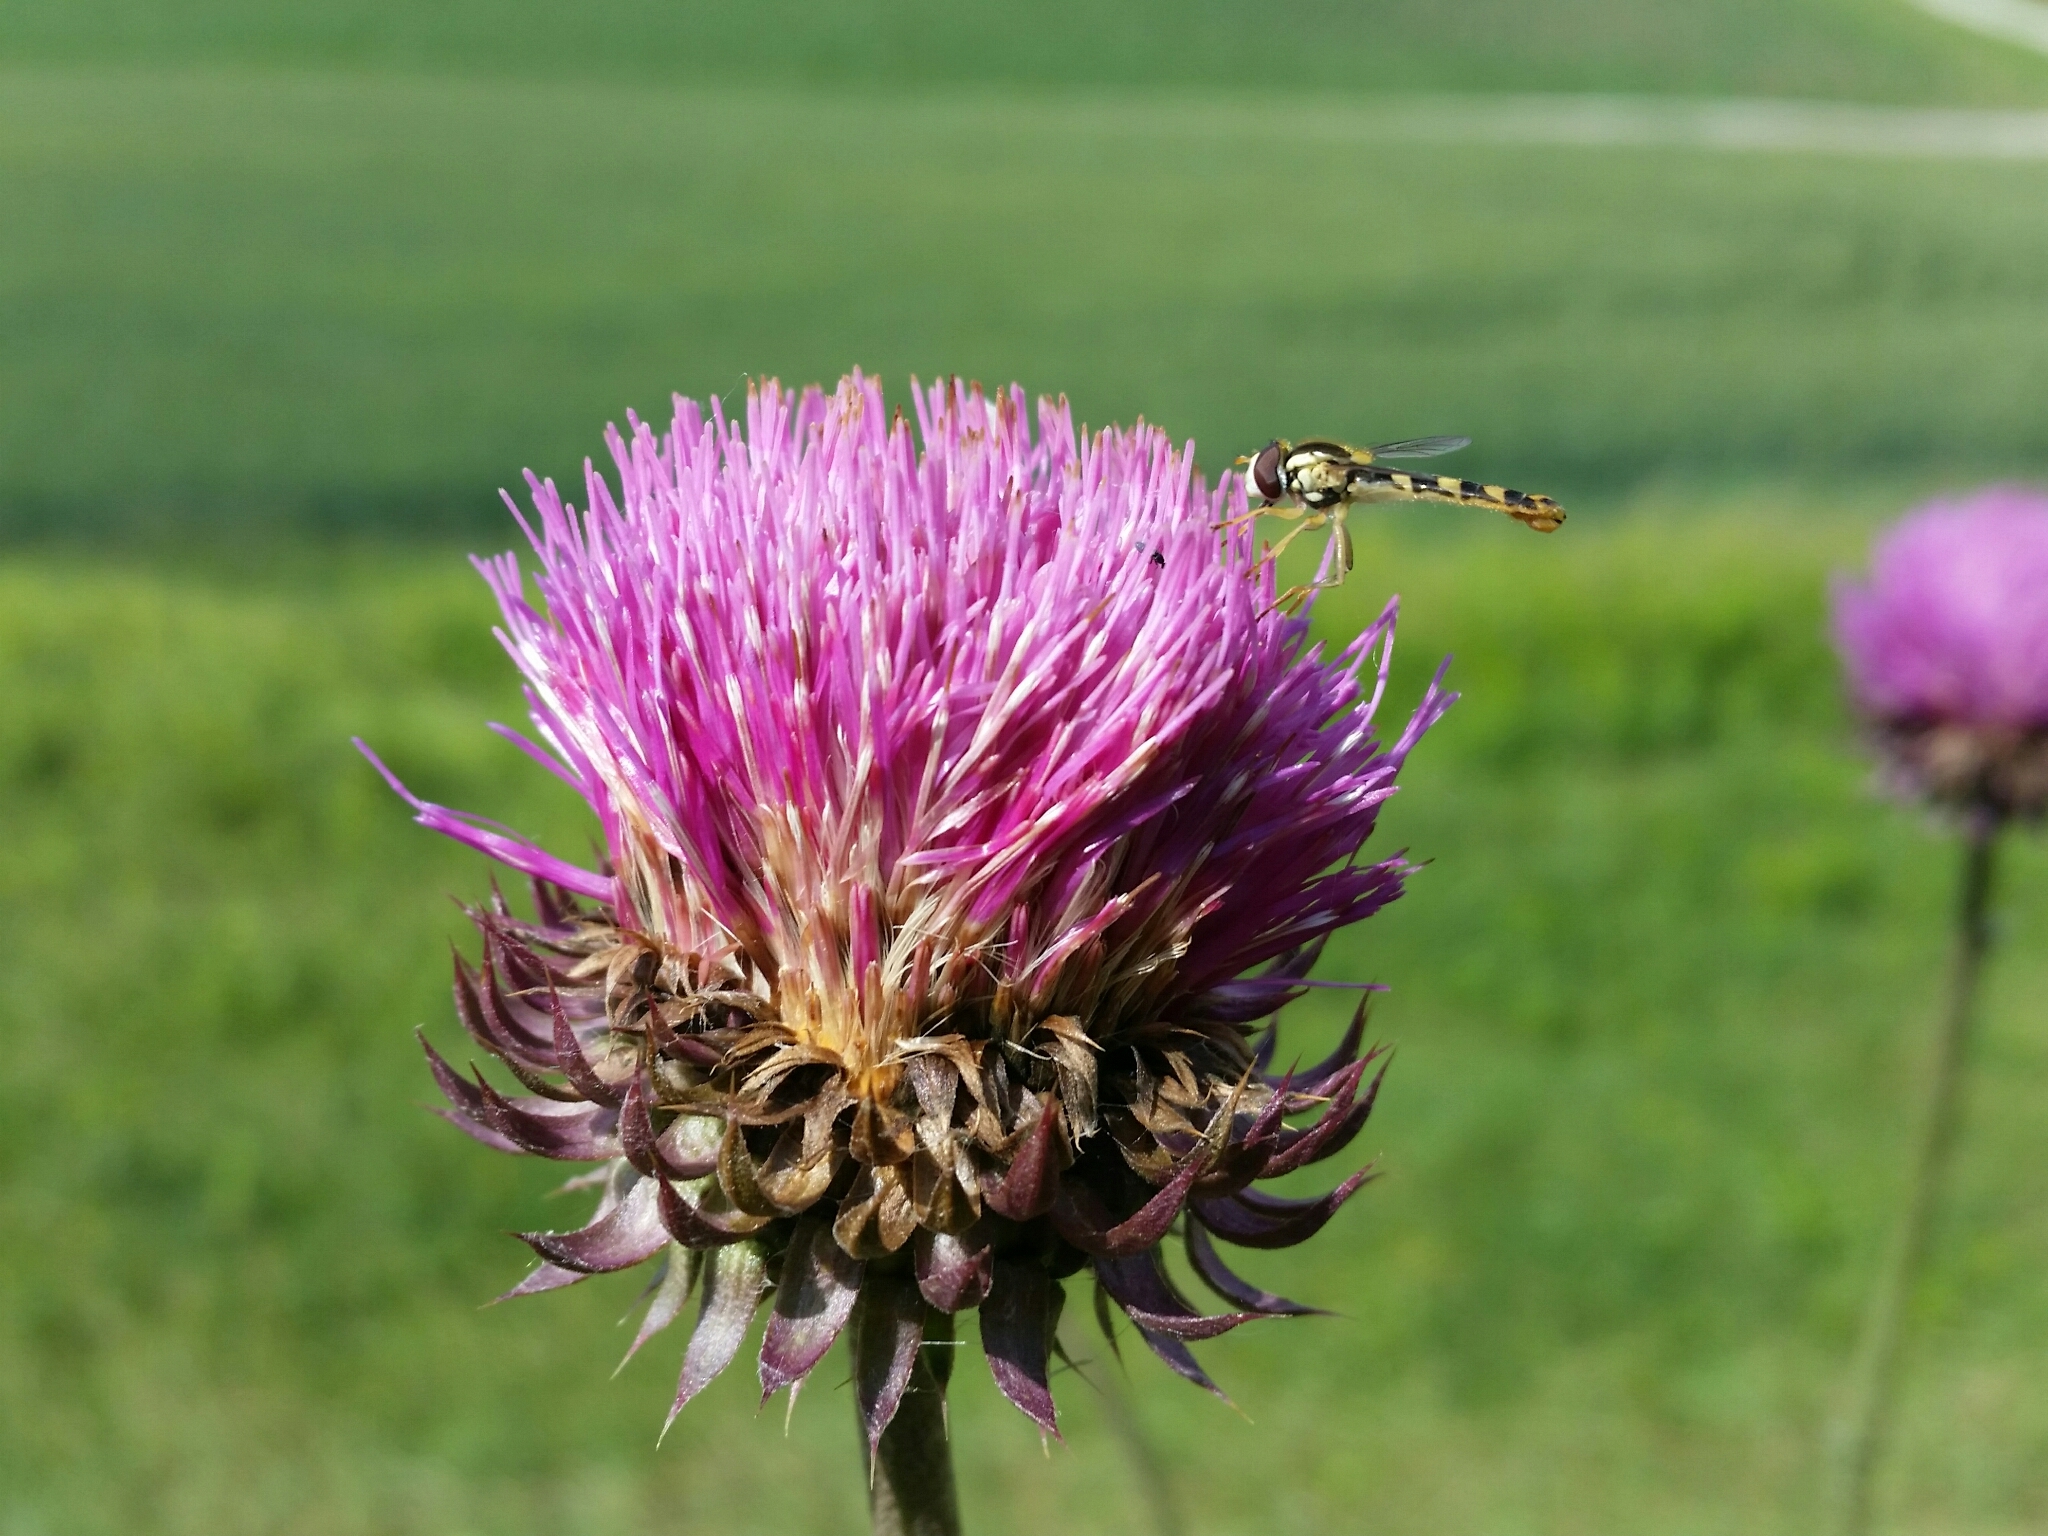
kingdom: Plantae
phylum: Tracheophyta
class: Magnoliopsida
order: Asterales
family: Asteraceae
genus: Carduus
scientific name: Carduus nutans
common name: Musk thistle
